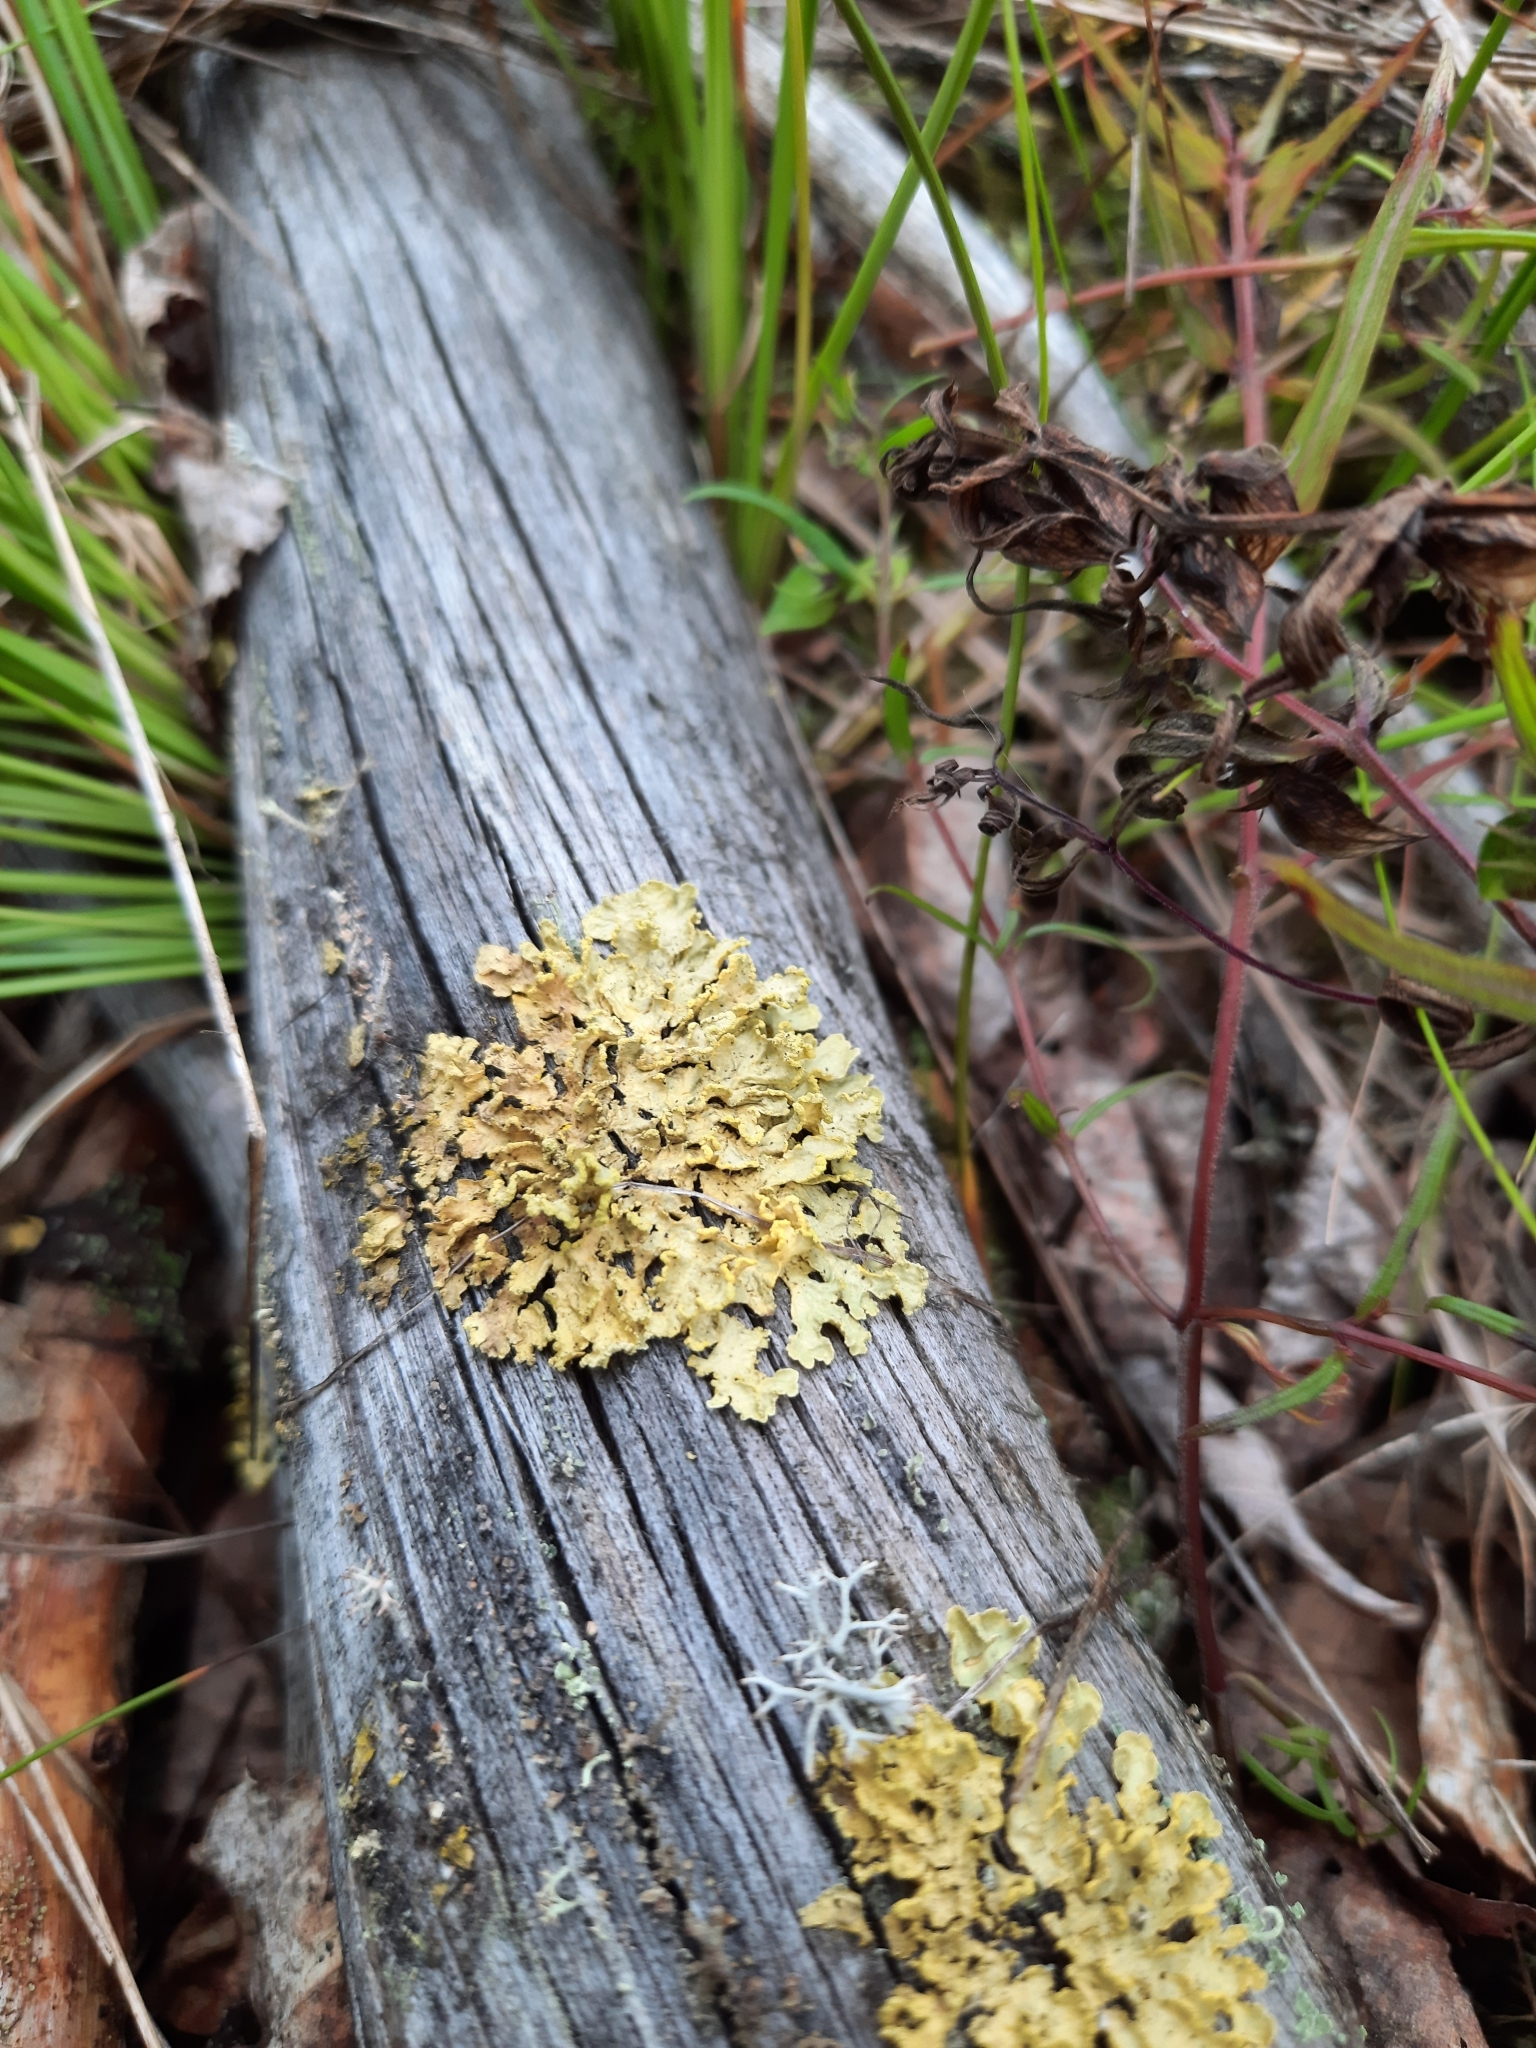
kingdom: Fungi
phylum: Ascomycota
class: Lecanoromycetes
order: Lecanorales
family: Parmeliaceae
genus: Vulpicida
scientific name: Vulpicida pinastri
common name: Powdered sunshine lichen
